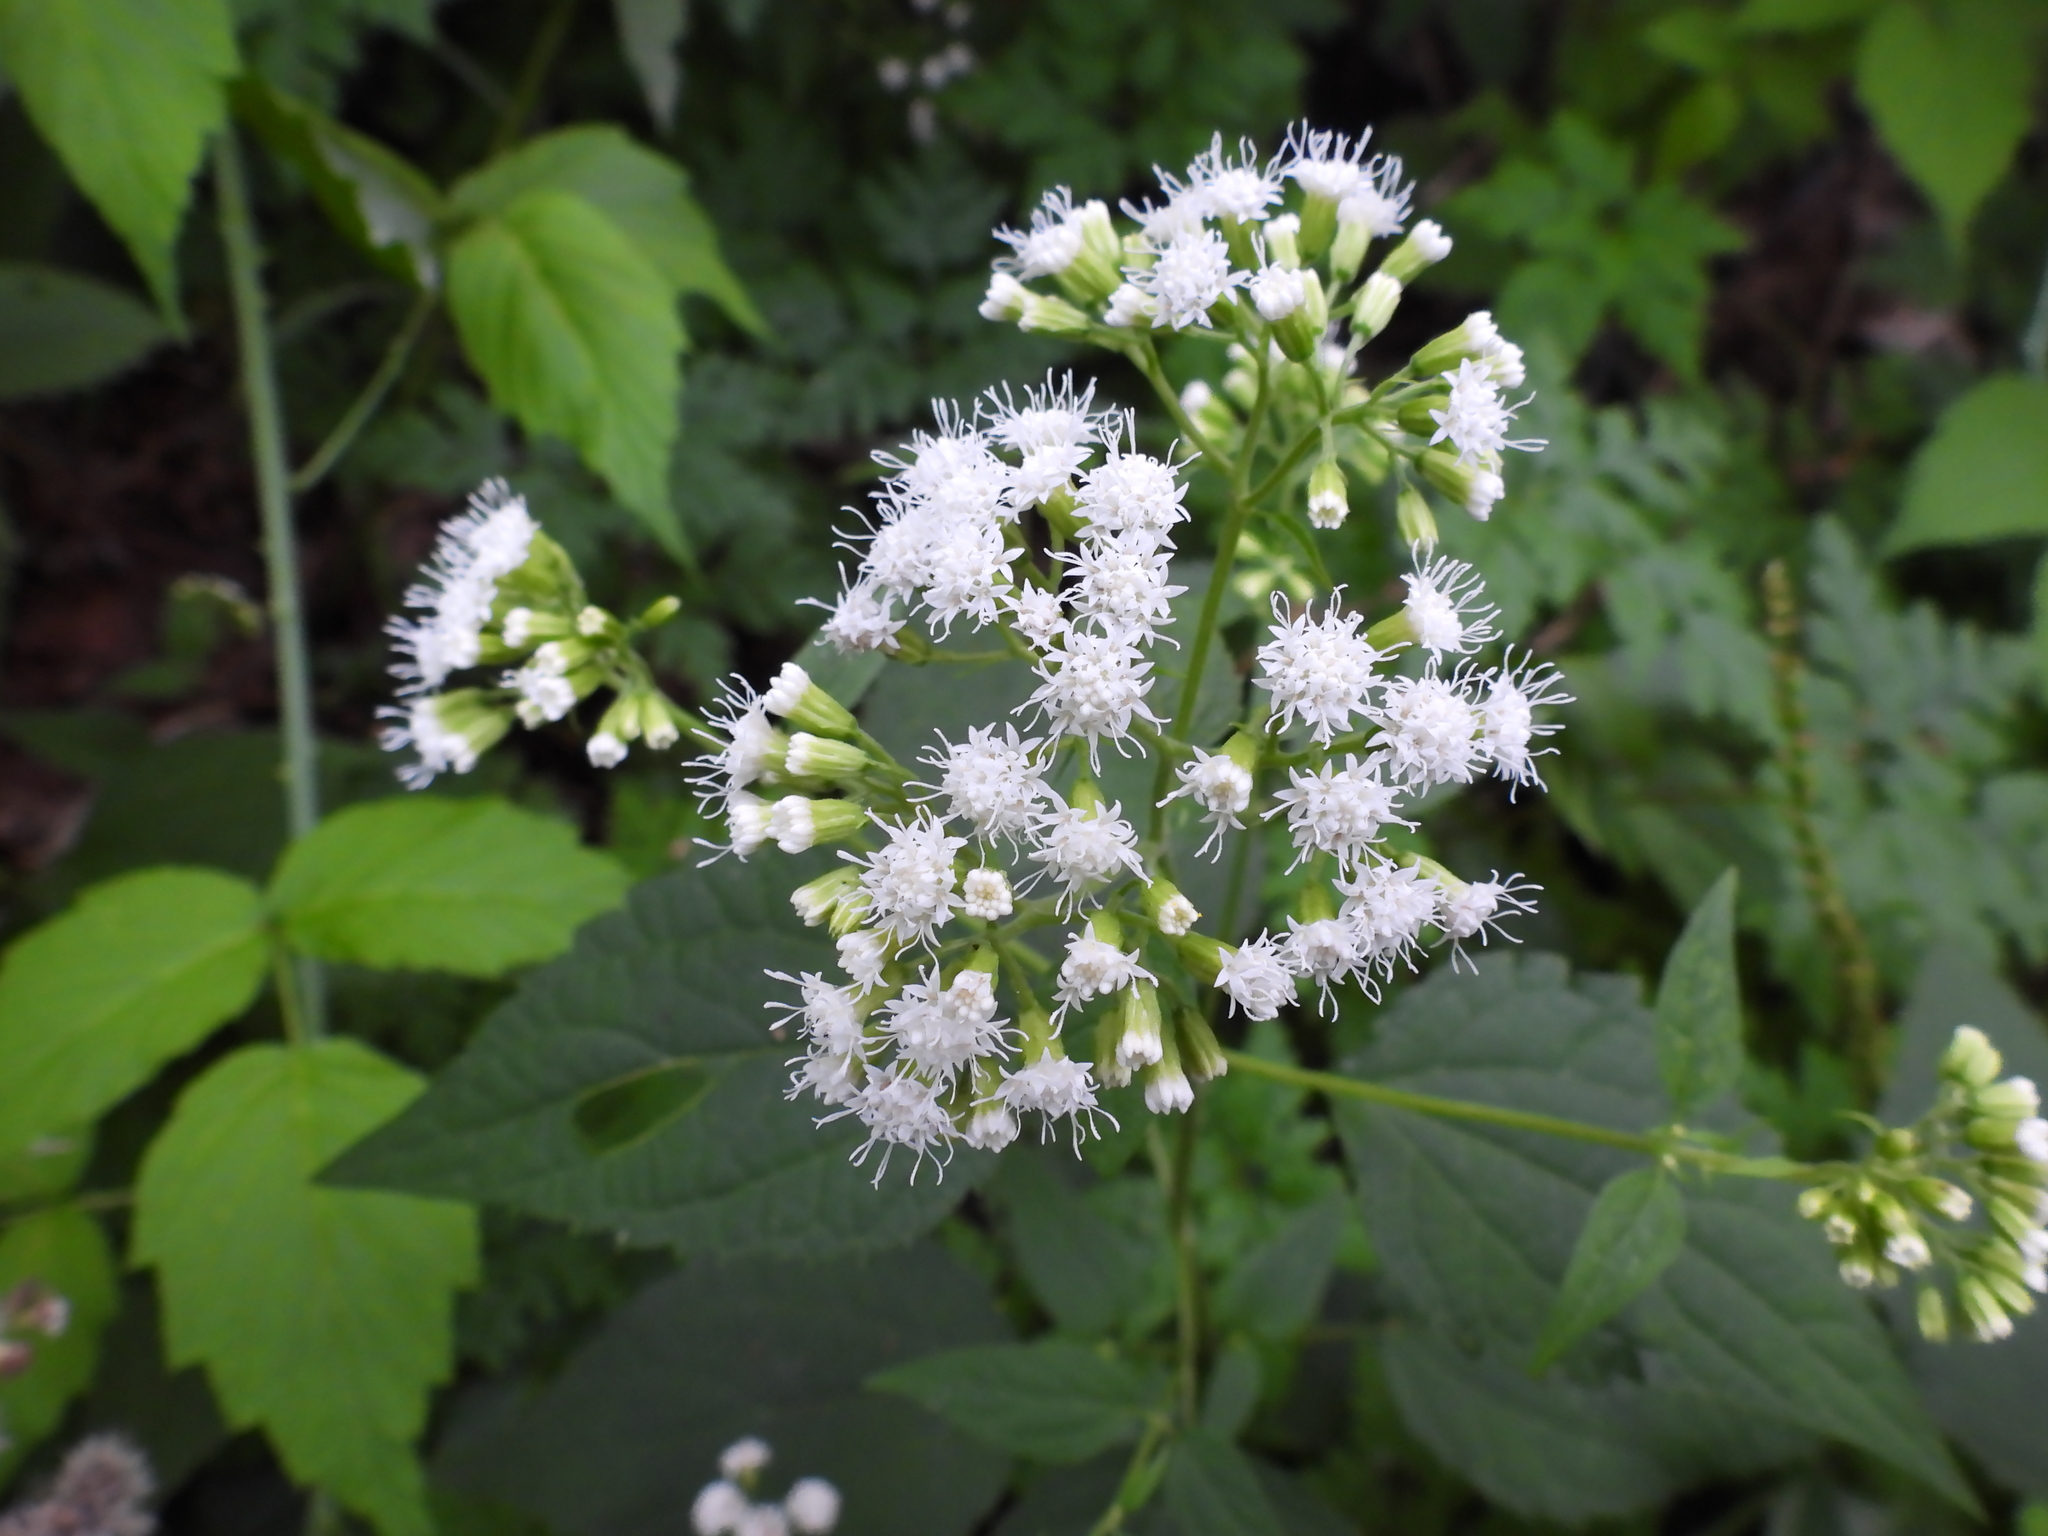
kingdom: Plantae
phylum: Tracheophyta
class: Magnoliopsida
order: Asterales
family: Asteraceae
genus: Ageratina
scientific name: Ageratina altissima
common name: White snakeroot
